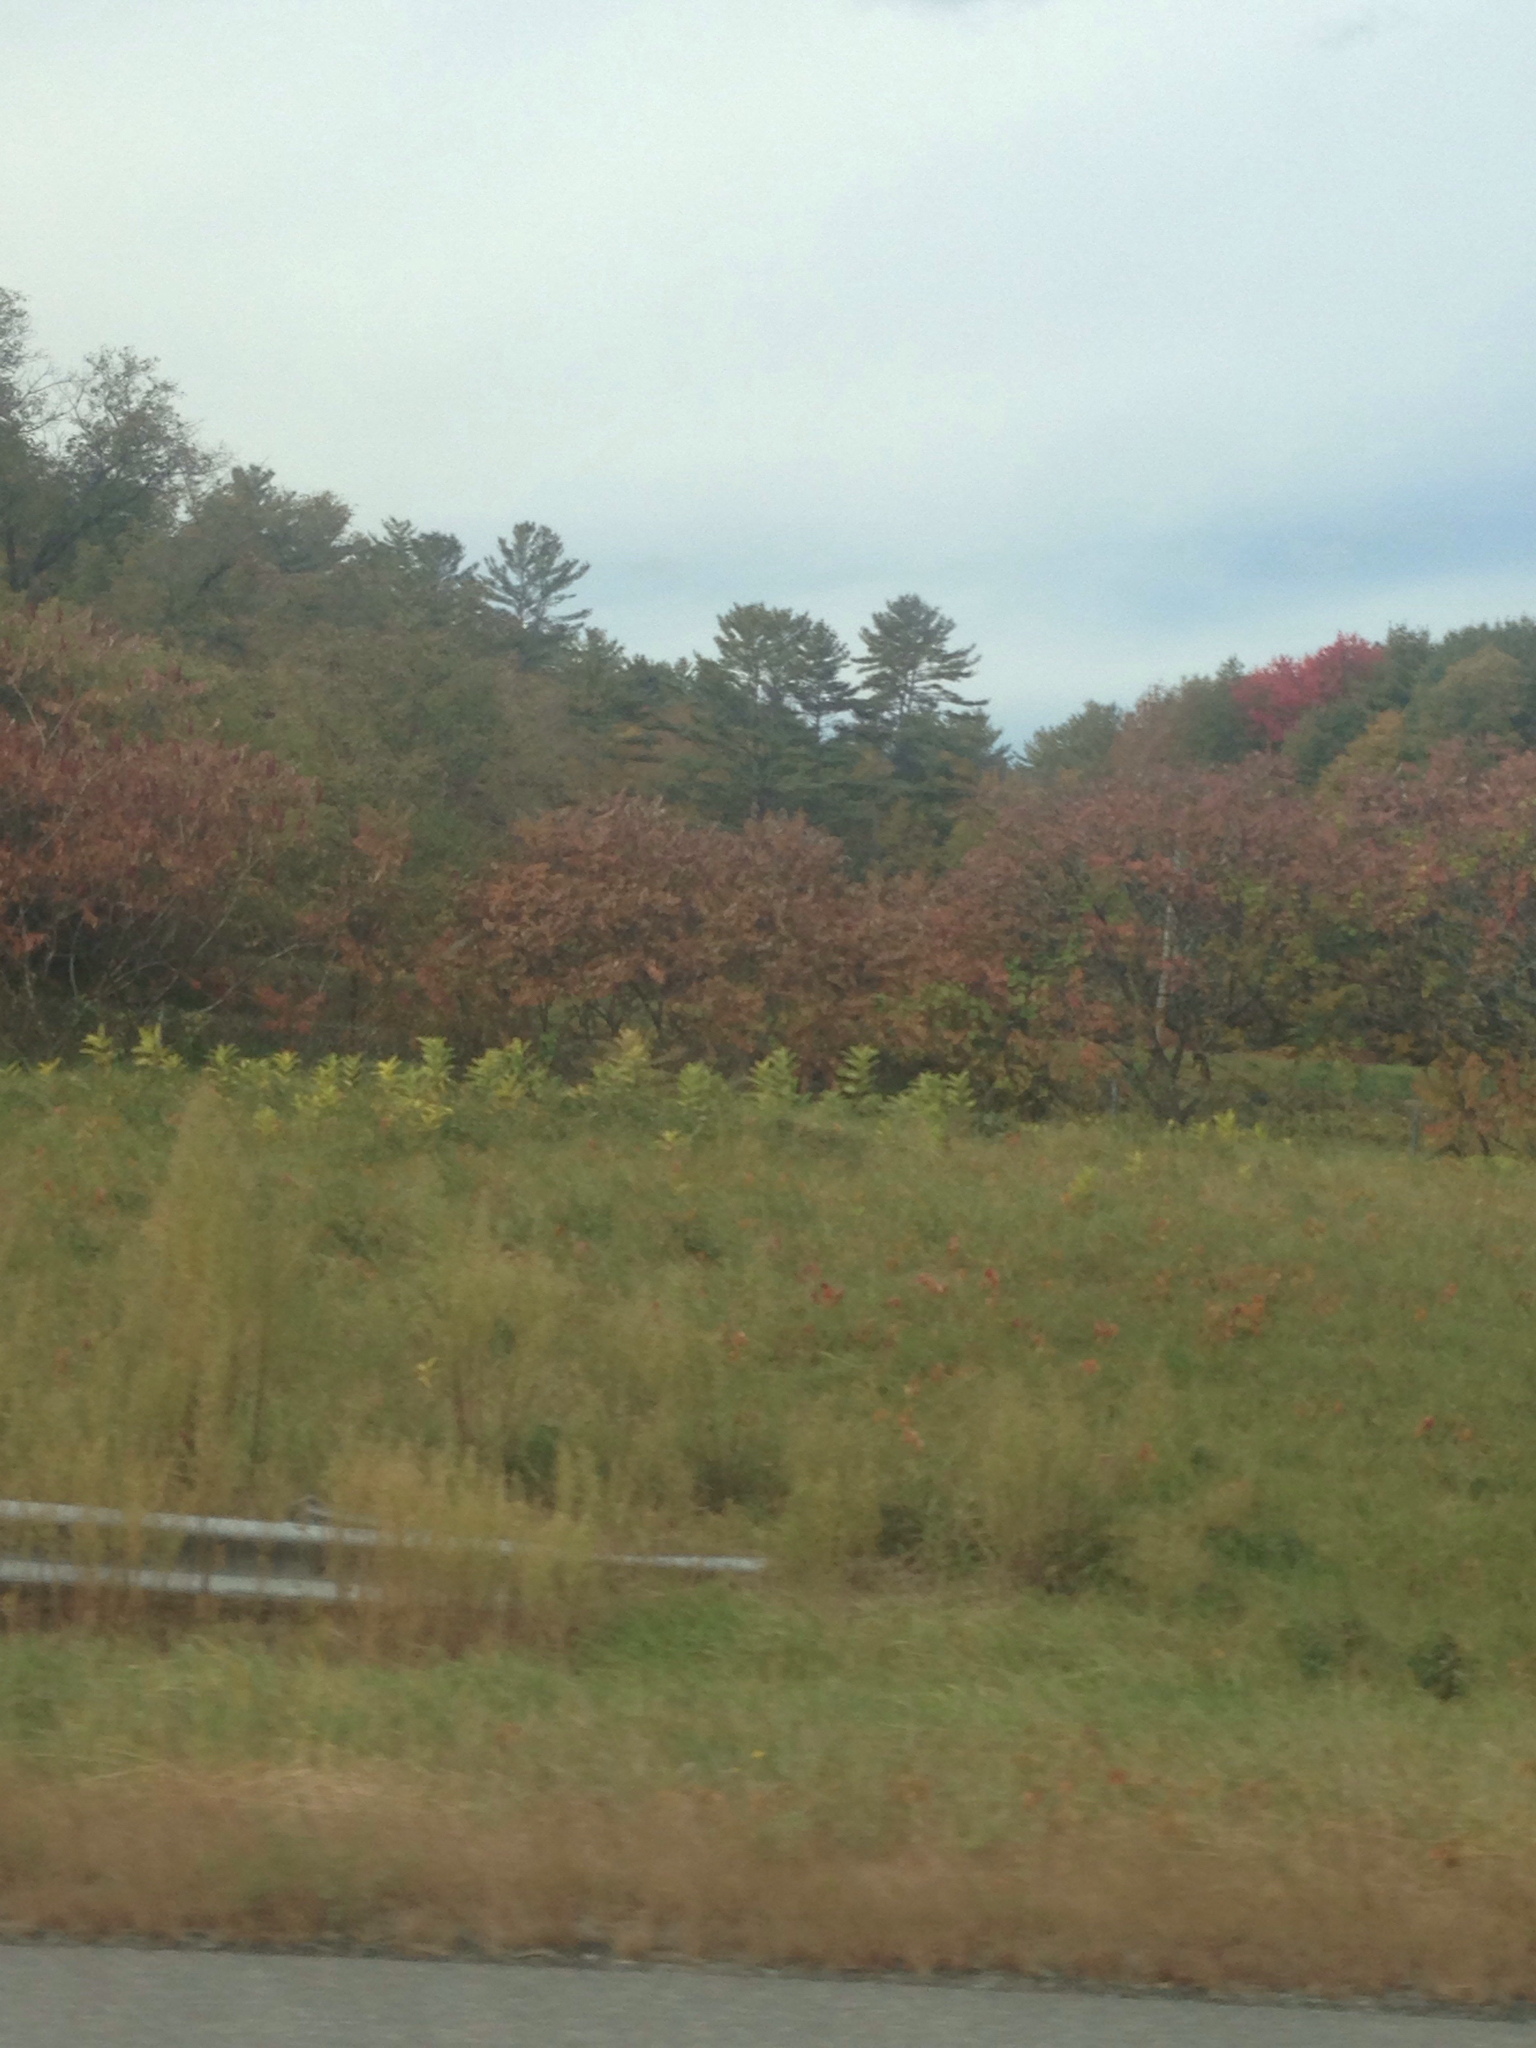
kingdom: Plantae
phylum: Tracheophyta
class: Magnoliopsida
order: Sapindales
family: Anacardiaceae
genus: Rhus
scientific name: Rhus typhina
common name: Staghorn sumac
